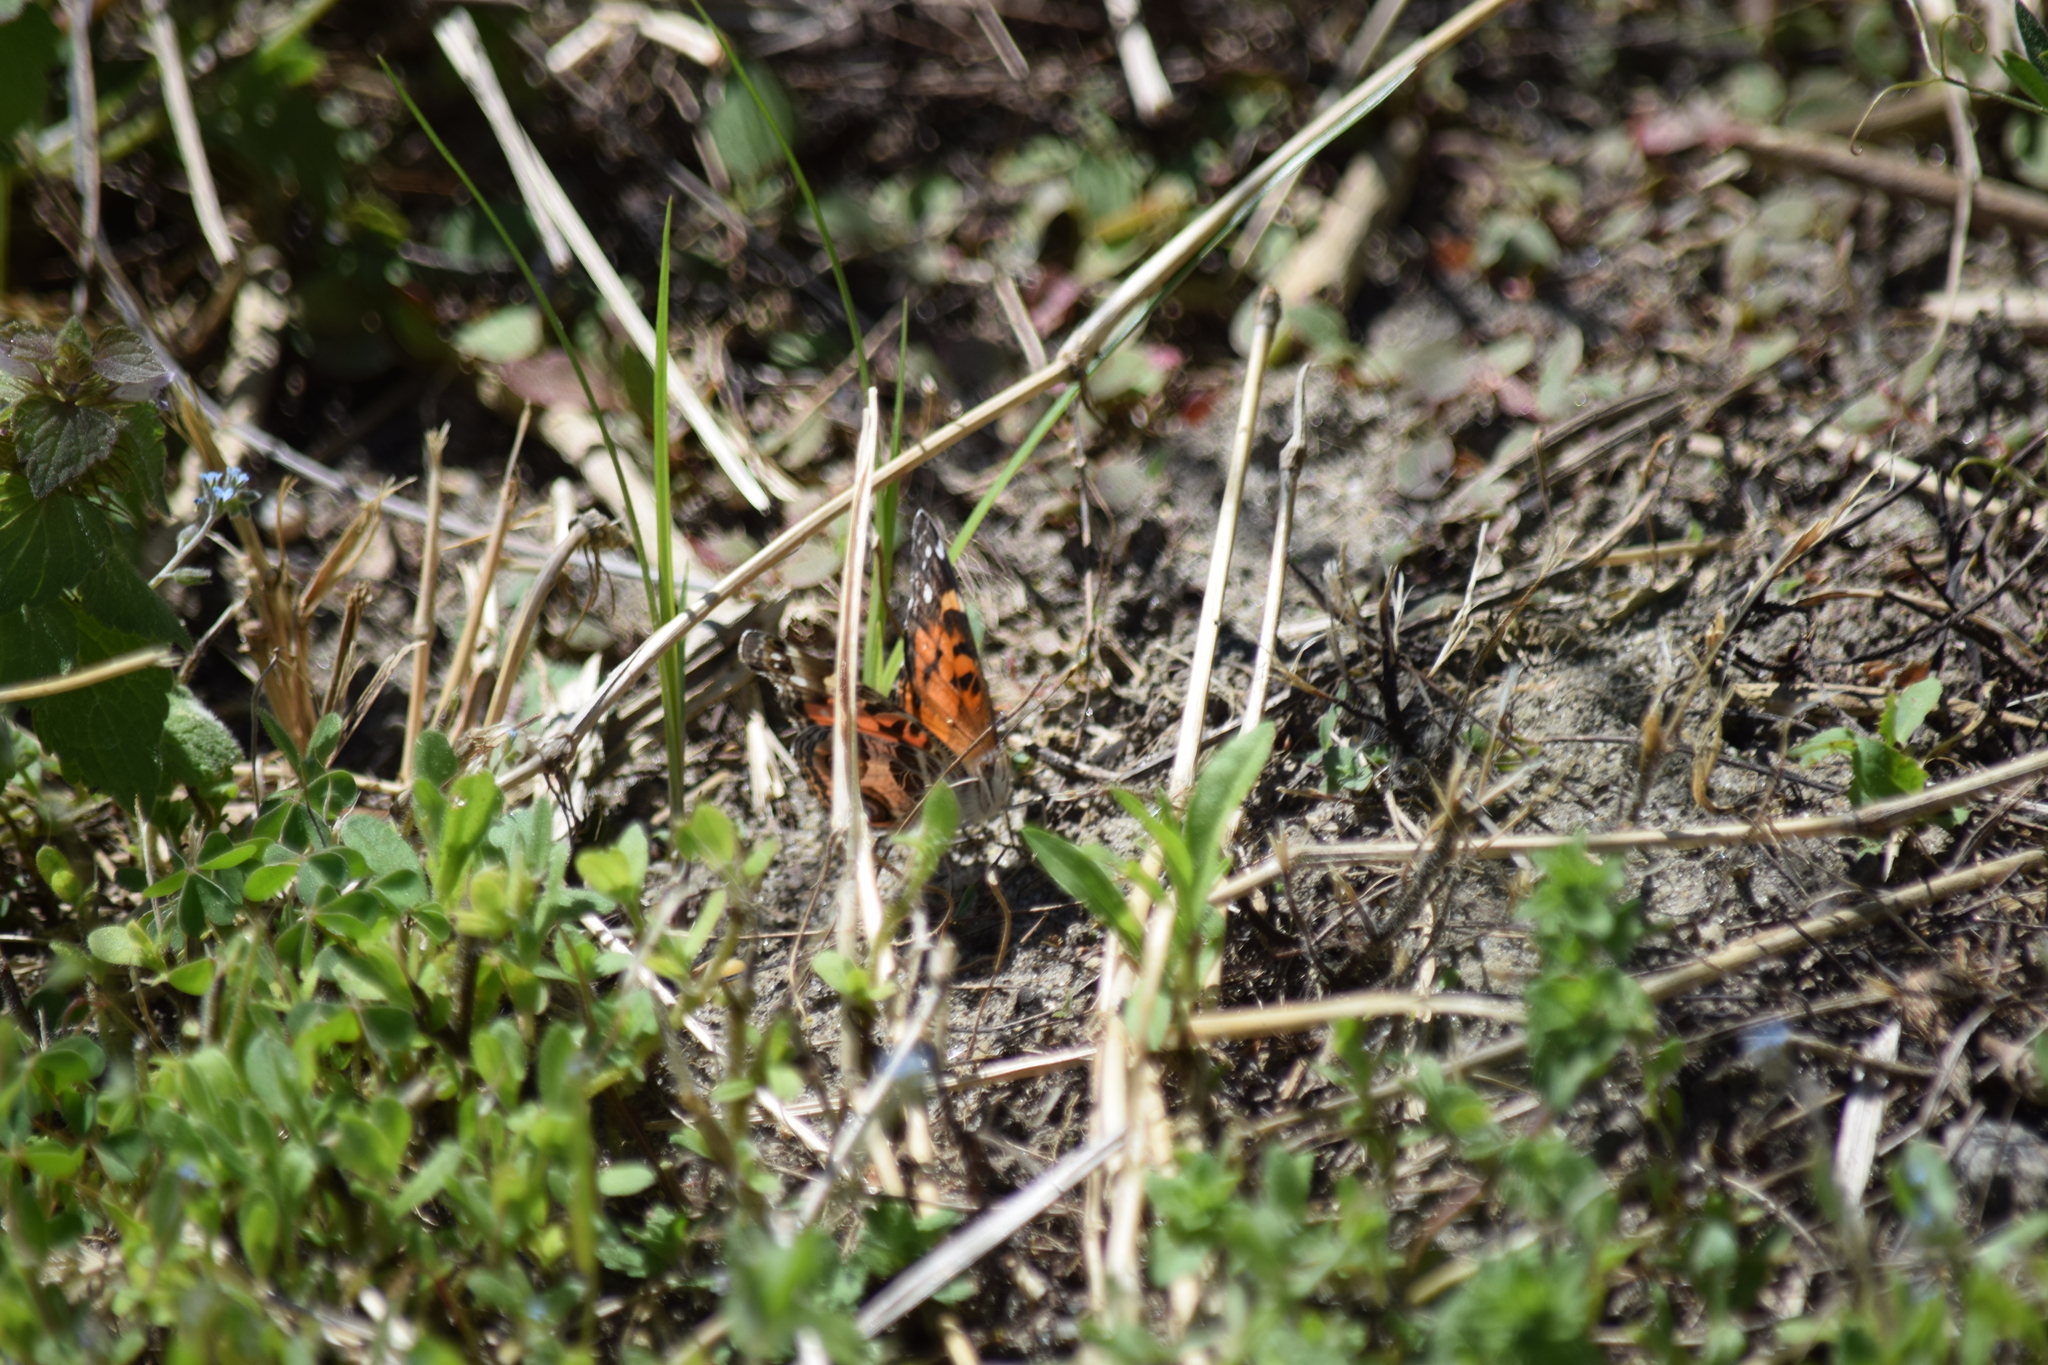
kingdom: Animalia
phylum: Arthropoda
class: Insecta
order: Lepidoptera
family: Nymphalidae
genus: Vanessa
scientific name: Vanessa virginiensis
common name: American lady
